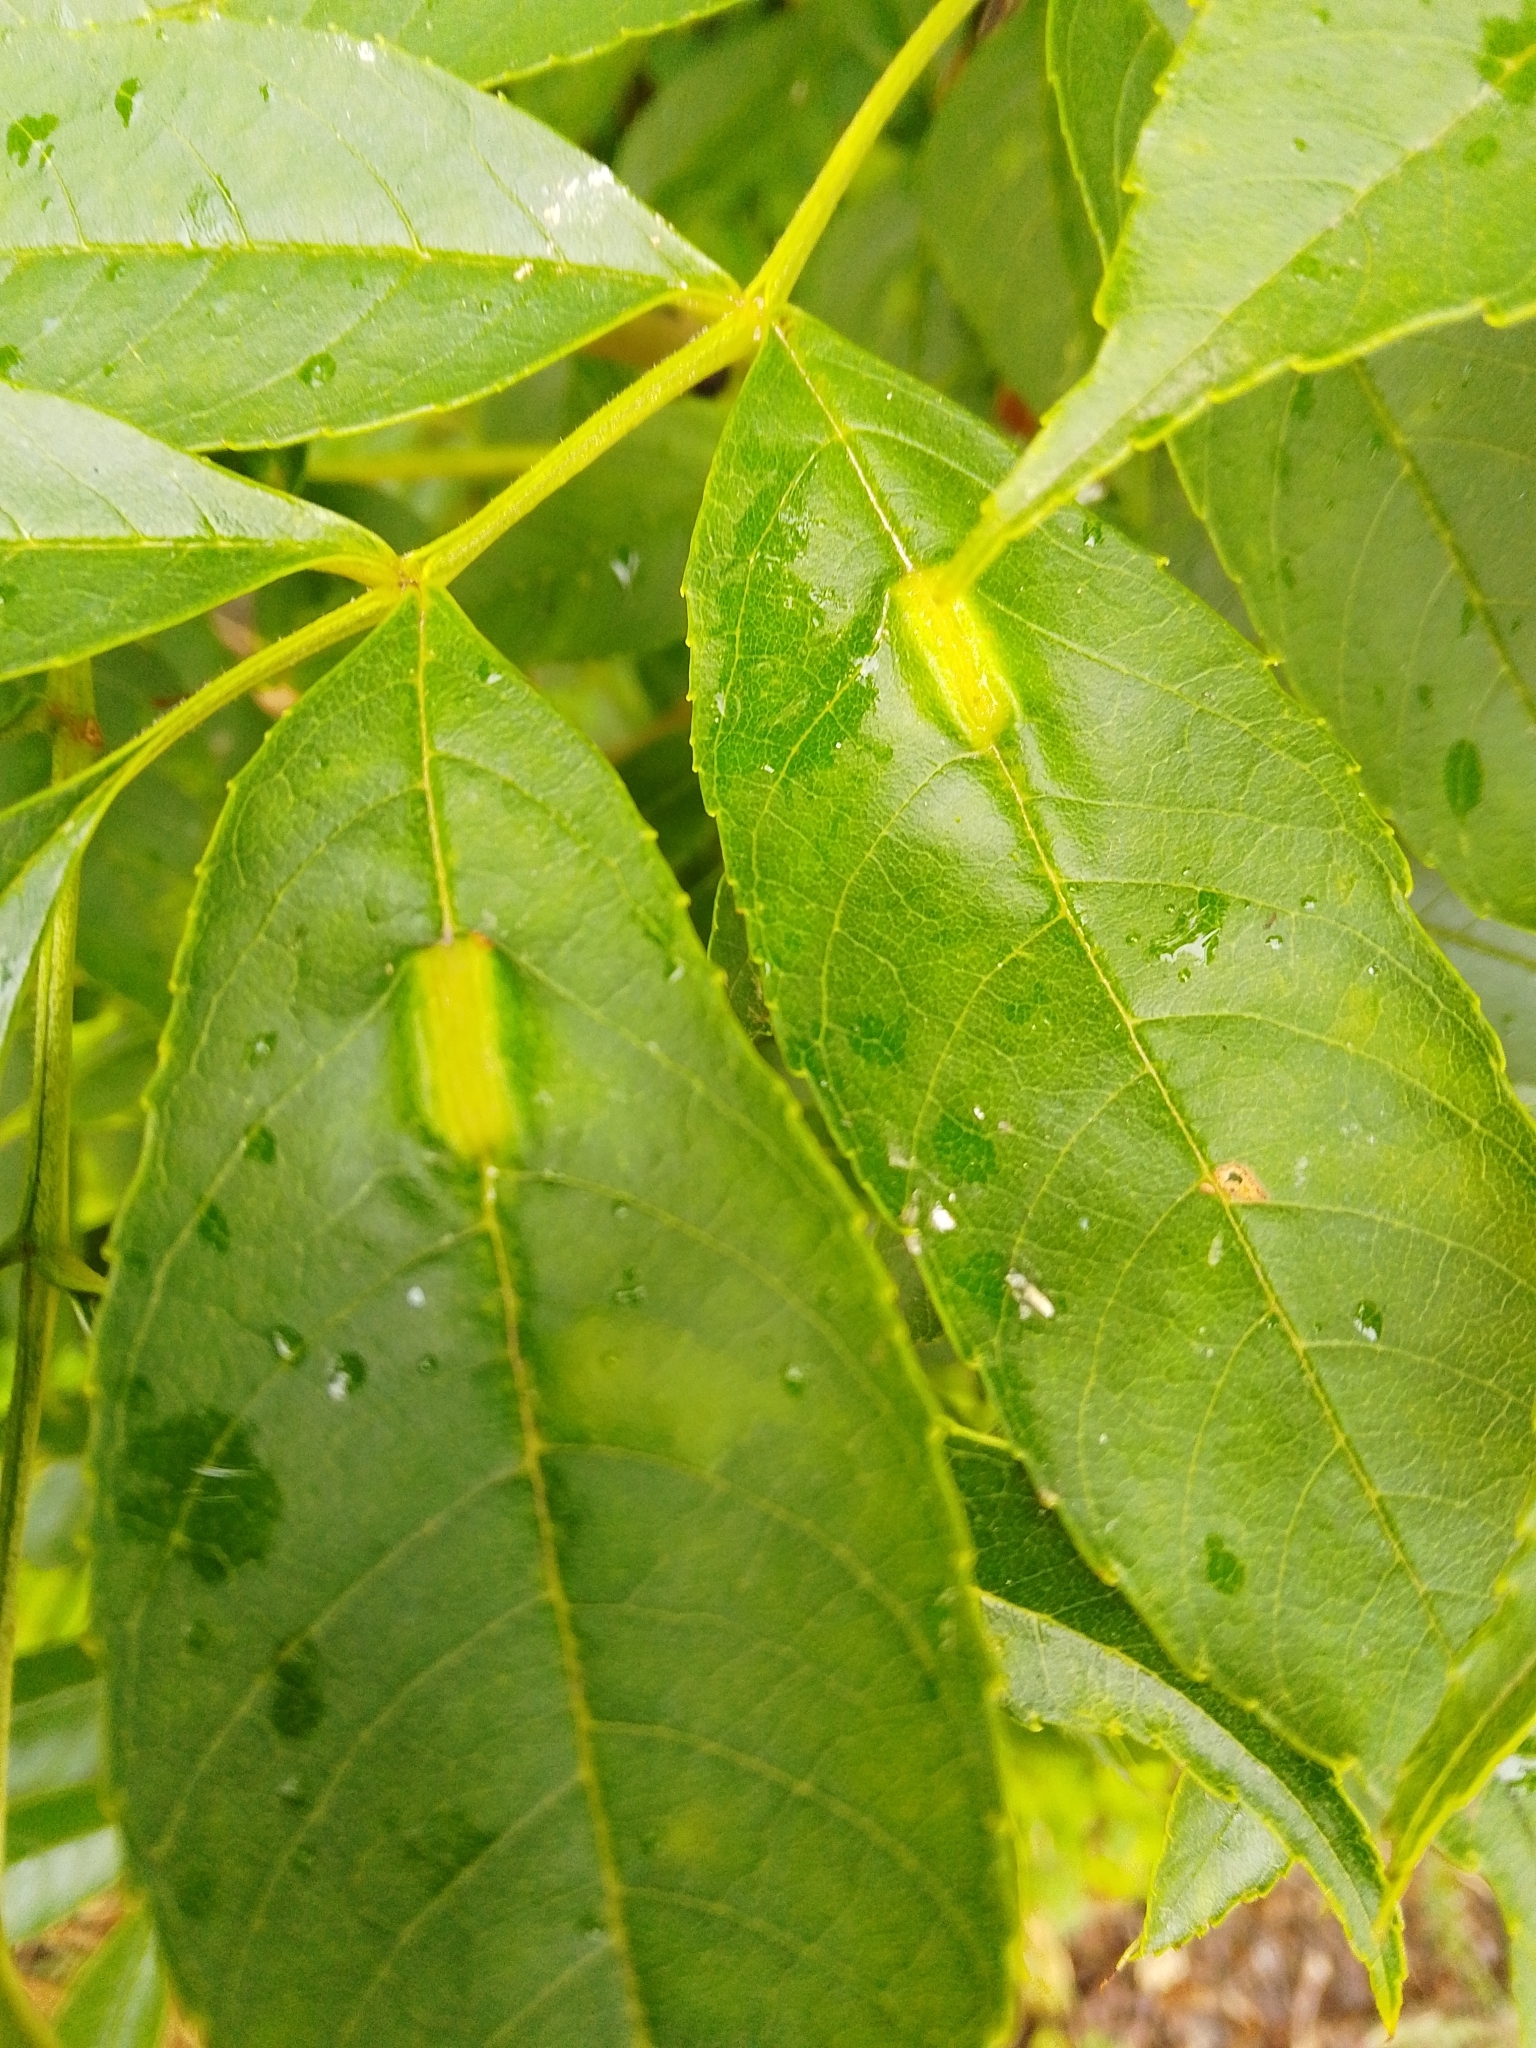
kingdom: Animalia
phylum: Arthropoda
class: Insecta
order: Diptera
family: Cecidomyiidae
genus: Dasineura
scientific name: Dasineura fraxini
